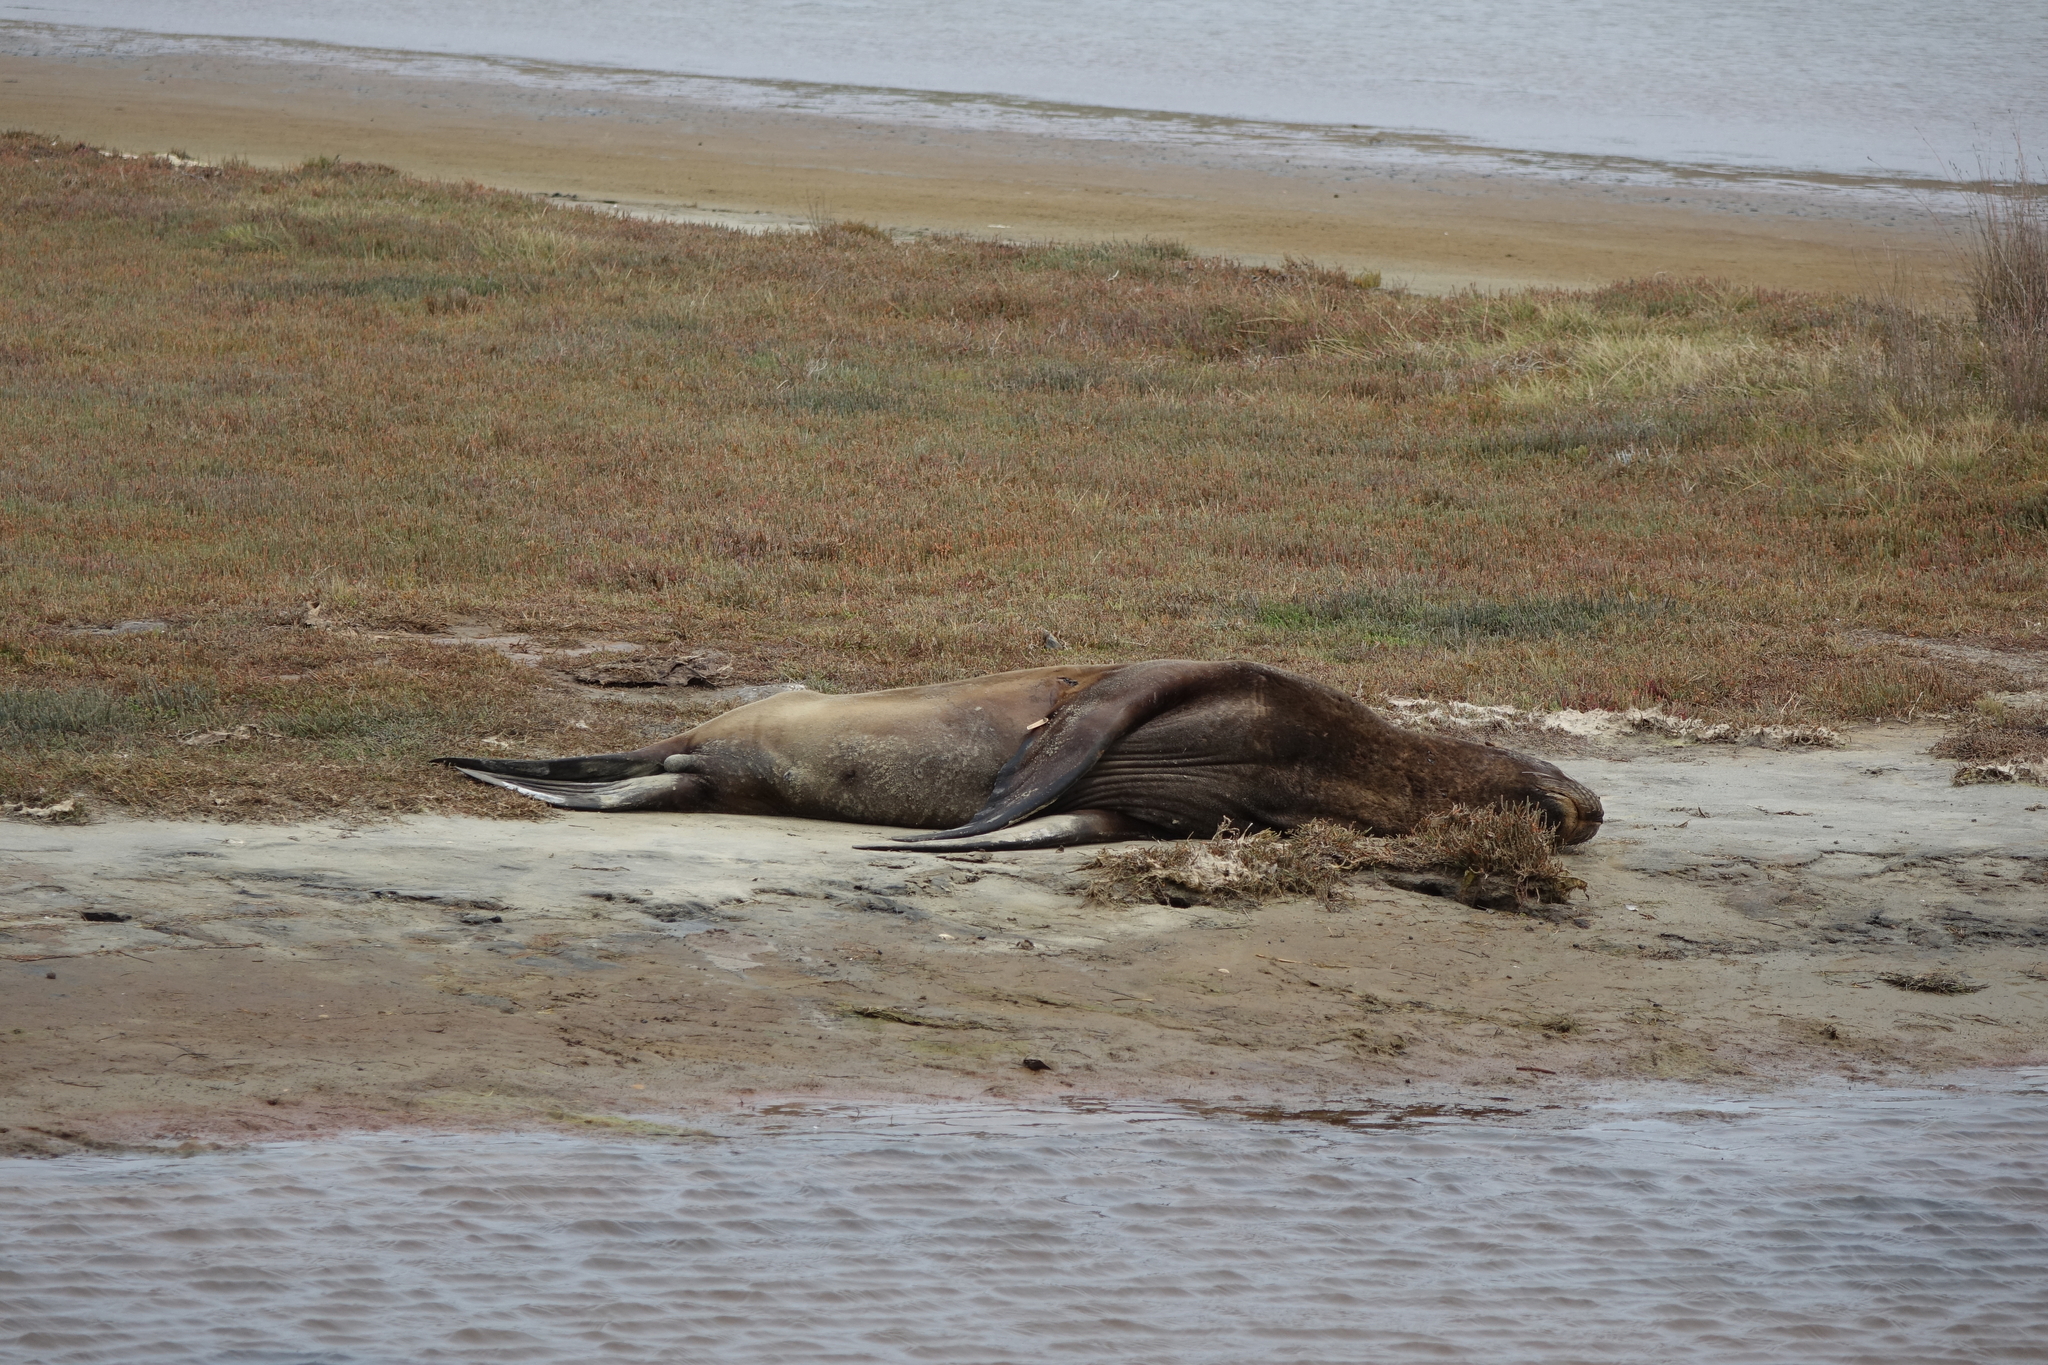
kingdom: Animalia
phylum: Chordata
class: Mammalia
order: Carnivora
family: Otariidae
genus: Phocarctos
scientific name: Phocarctos hookeri
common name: New zealand sea lion
